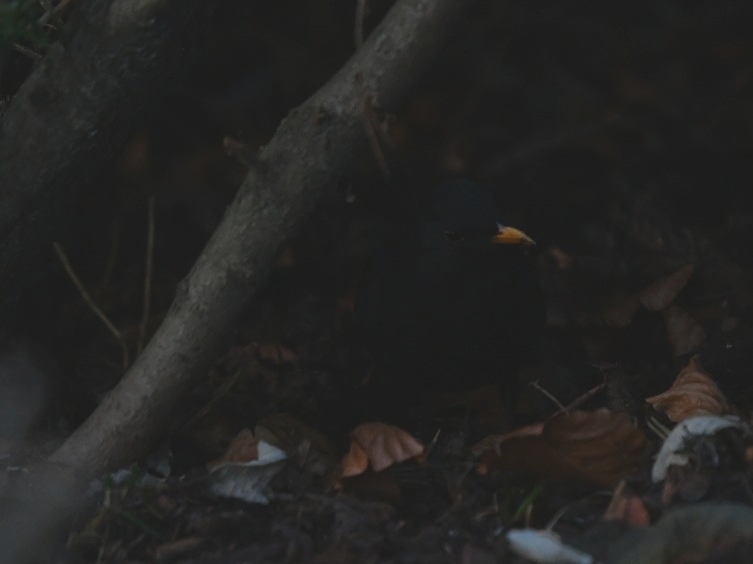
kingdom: Animalia
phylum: Chordata
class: Aves
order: Passeriformes
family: Turdidae
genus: Turdus
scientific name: Turdus merula
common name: Common blackbird
